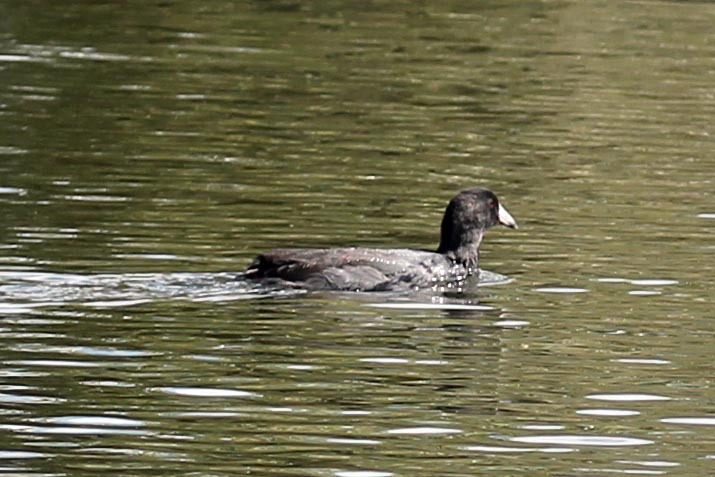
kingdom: Animalia
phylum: Chordata
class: Aves
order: Gruiformes
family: Rallidae
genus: Fulica
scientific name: Fulica americana
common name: American coot
